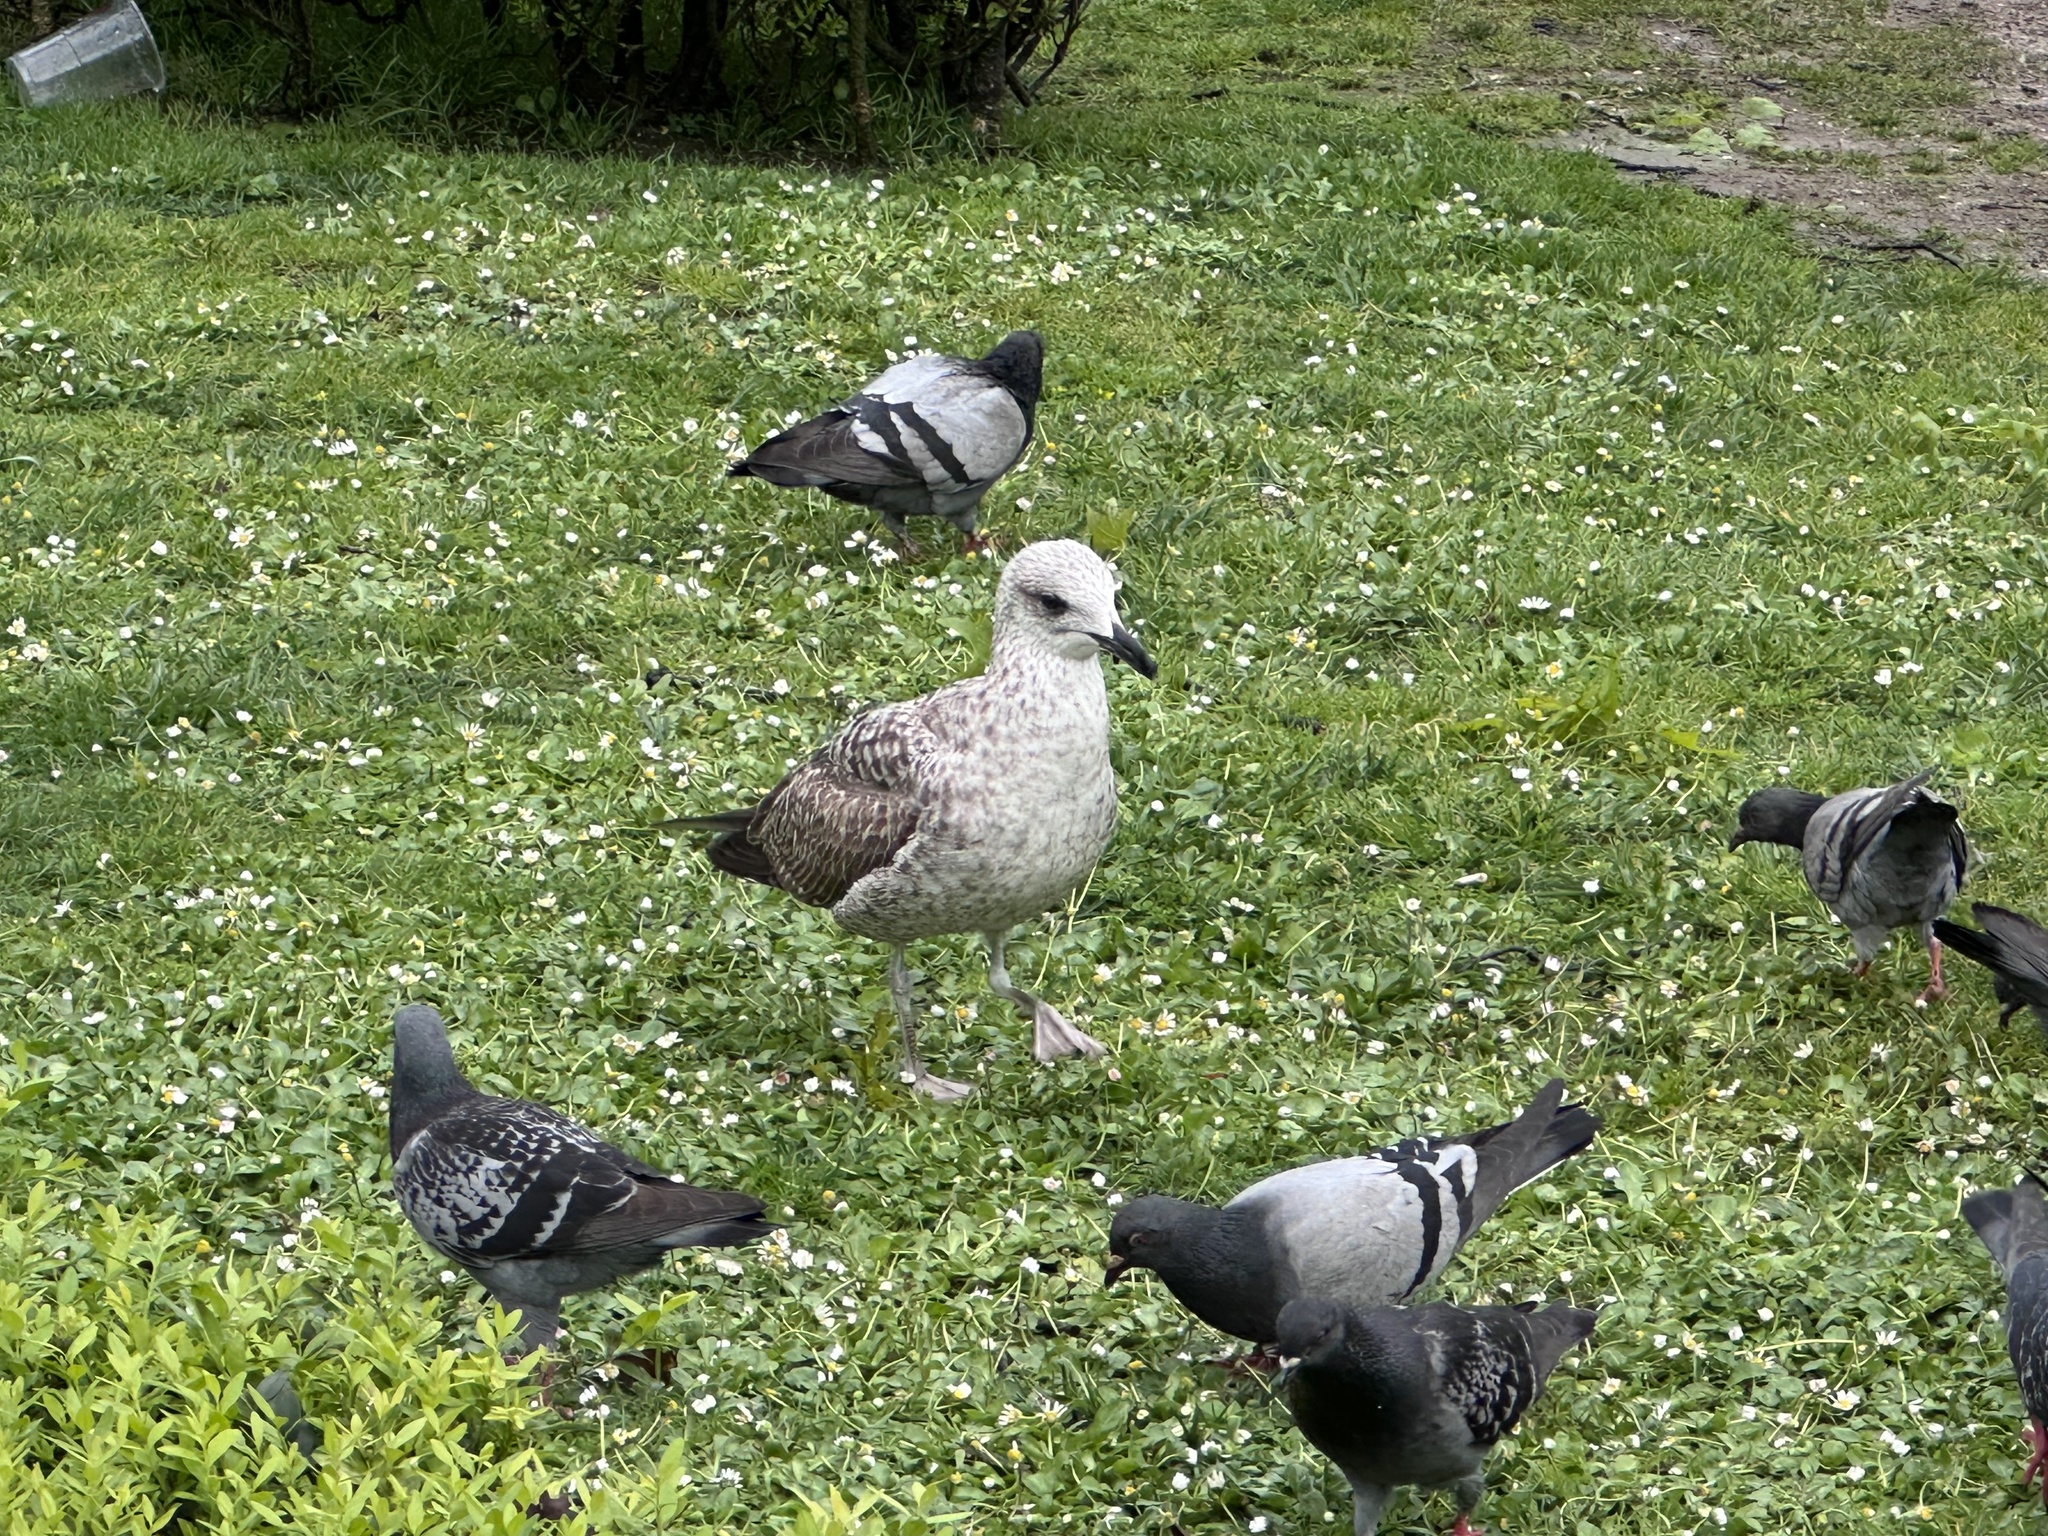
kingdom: Animalia
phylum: Chordata
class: Aves
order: Charadriiformes
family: Laridae
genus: Larus
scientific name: Larus michahellis
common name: Yellow-legged gull
